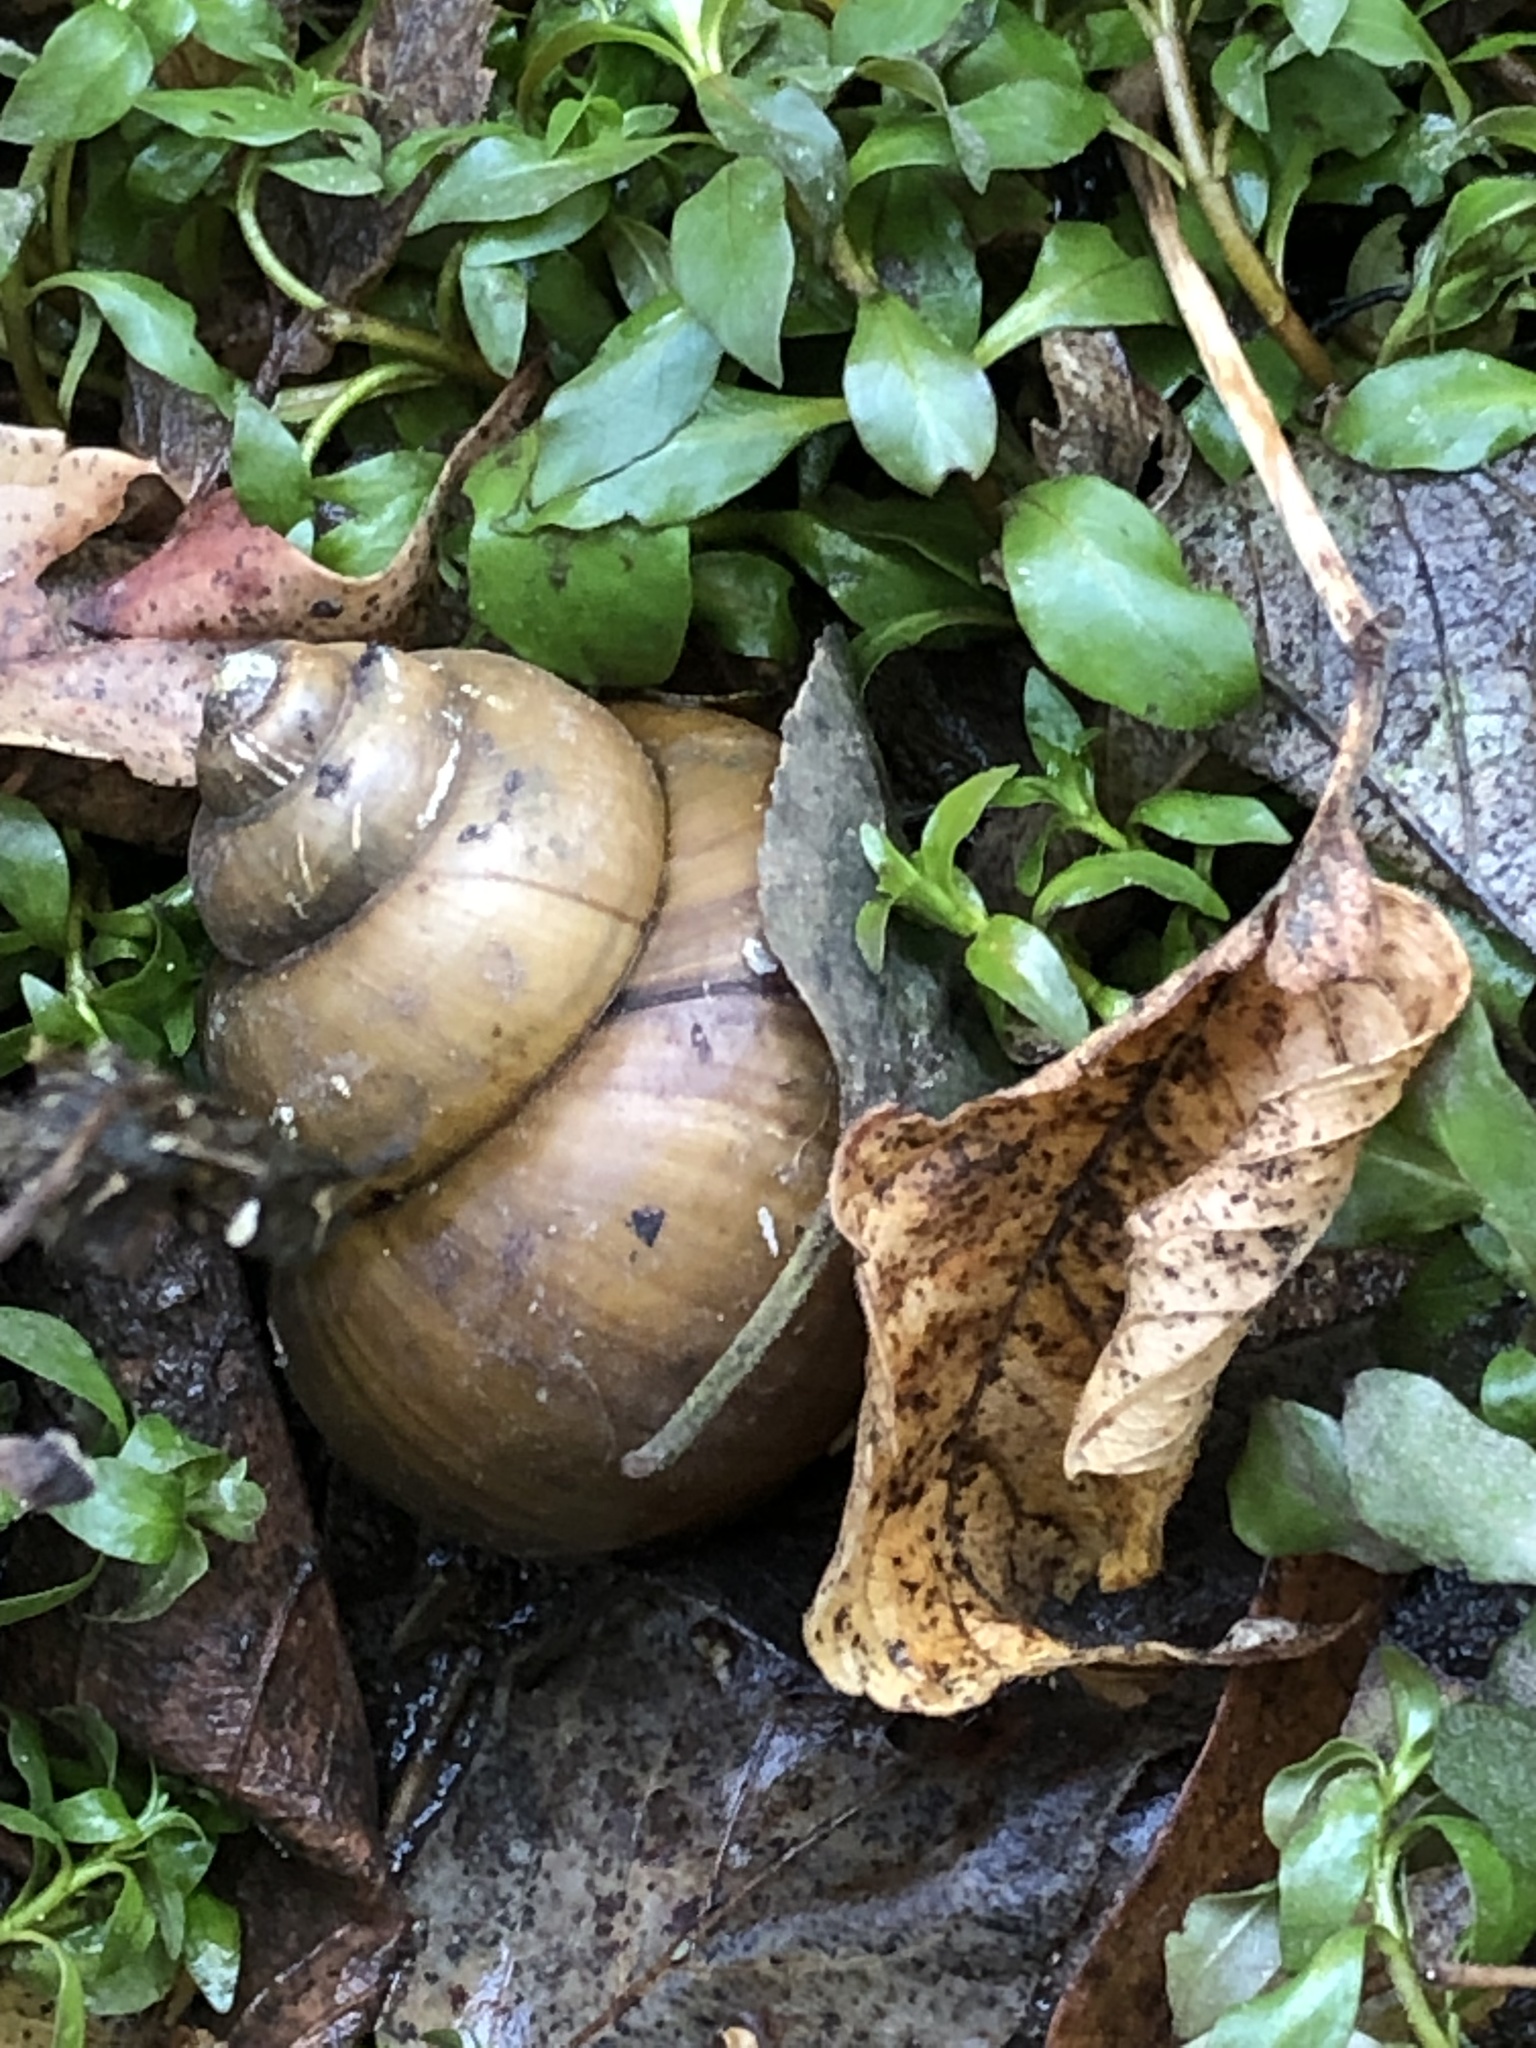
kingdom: Animalia
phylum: Mollusca
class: Gastropoda
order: Architaenioglossa
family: Viviparidae
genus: Cipangopaludina
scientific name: Cipangopaludina chinensis
